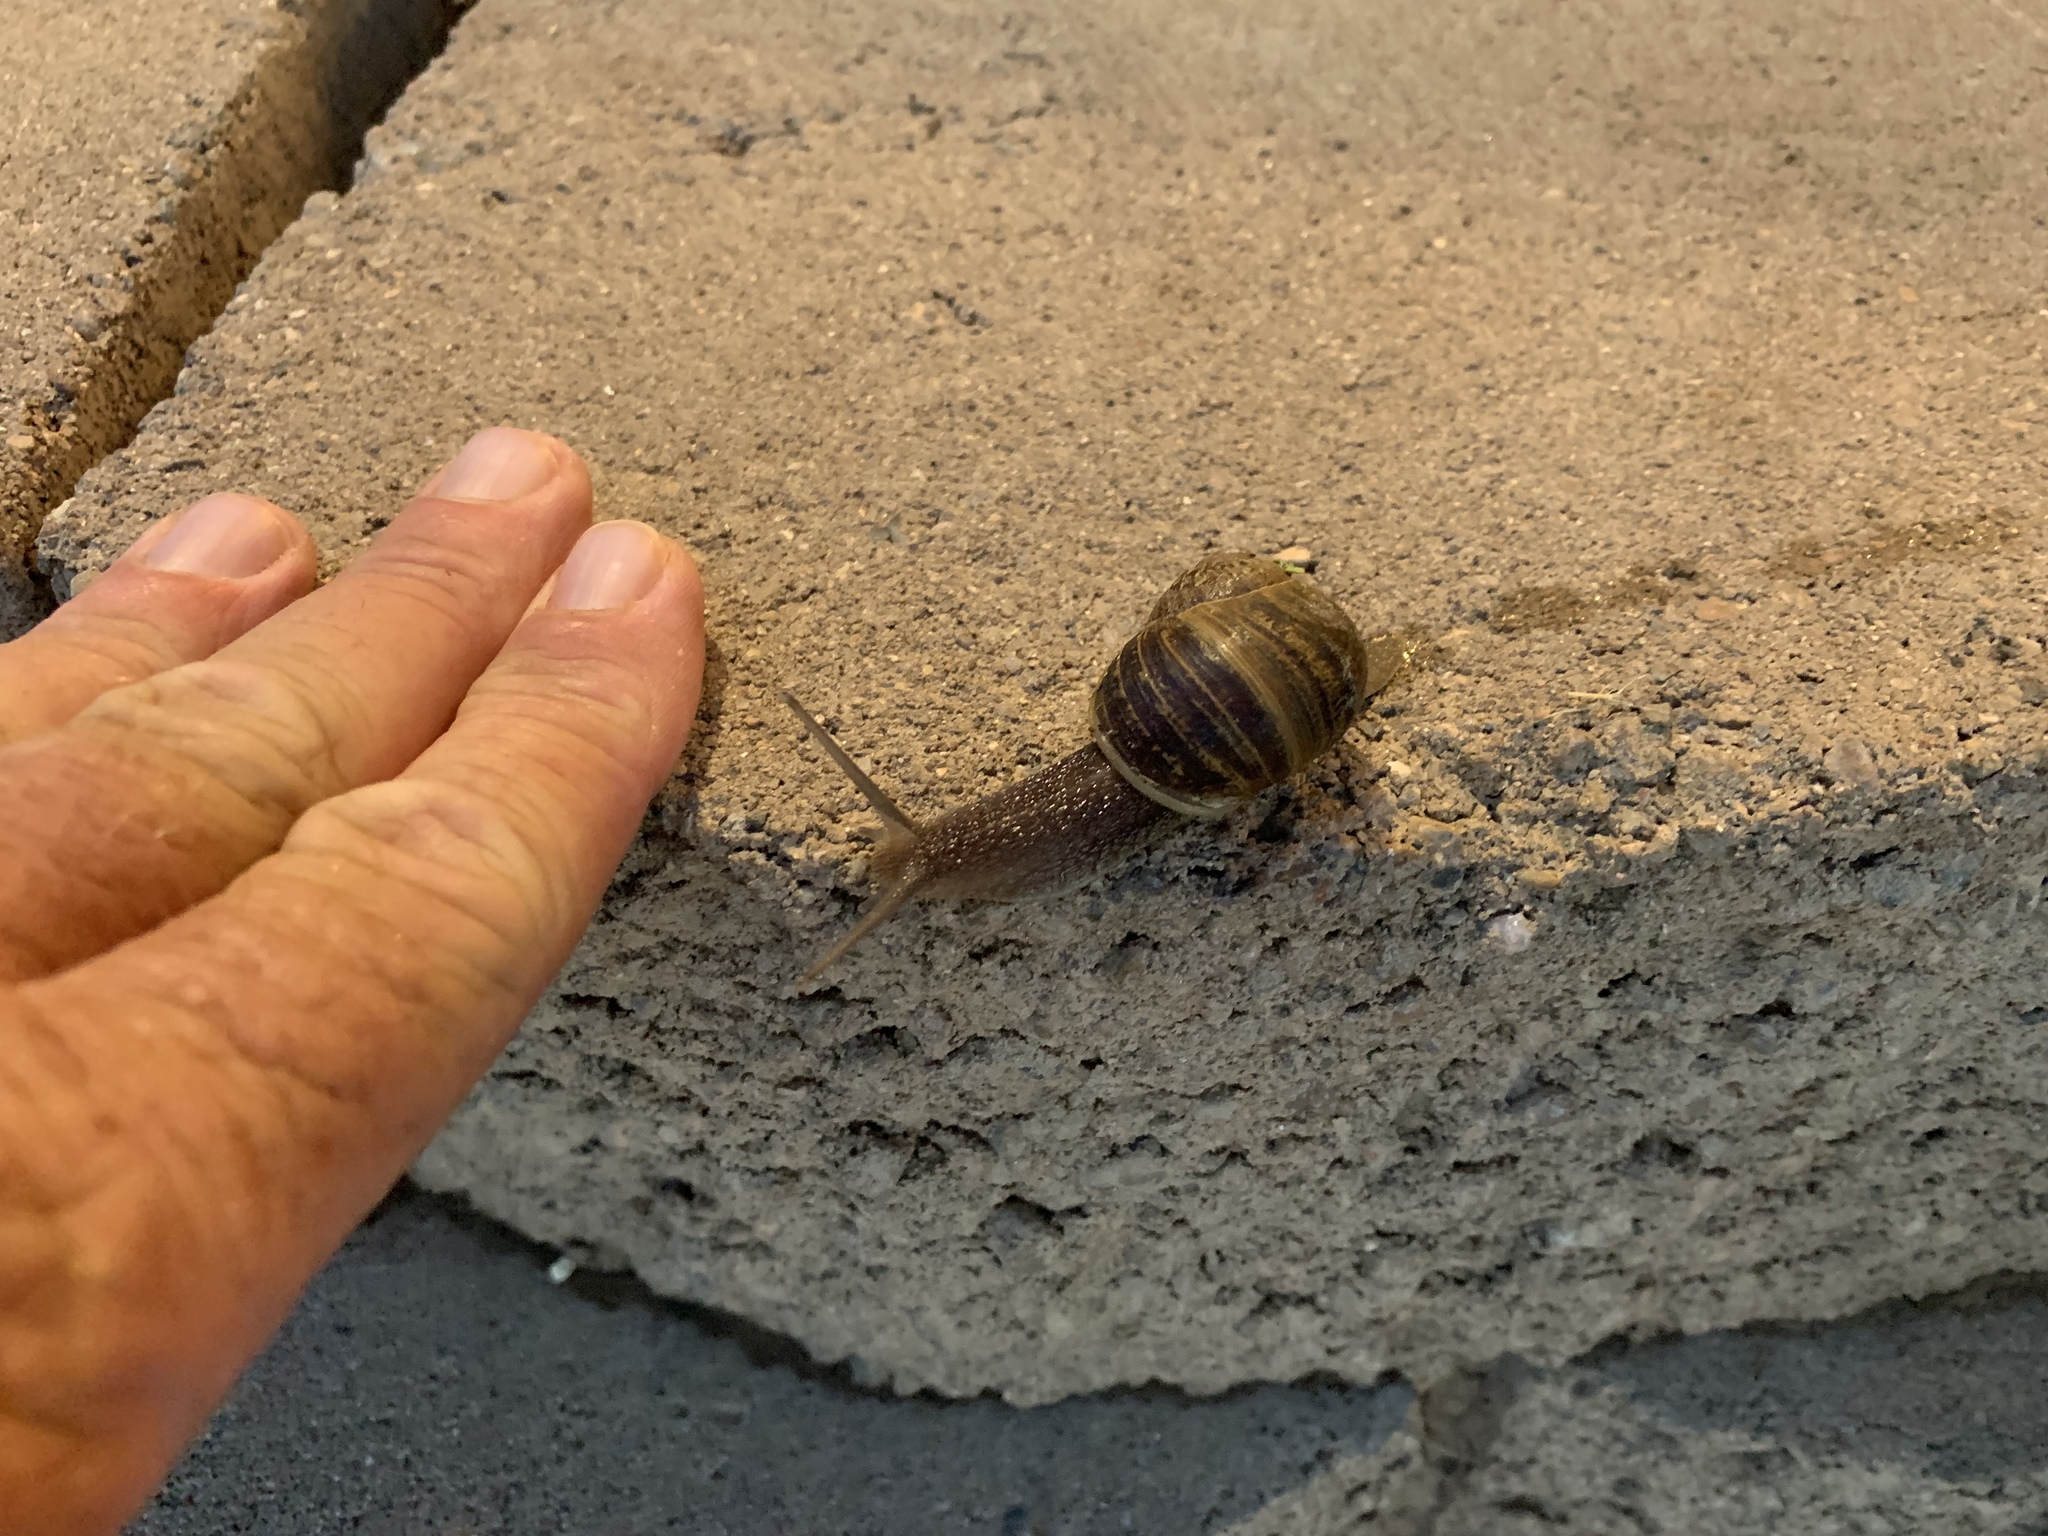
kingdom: Animalia
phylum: Mollusca
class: Gastropoda
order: Stylommatophora
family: Helicidae
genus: Cornu
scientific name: Cornu aspersum
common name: Brown garden snail
